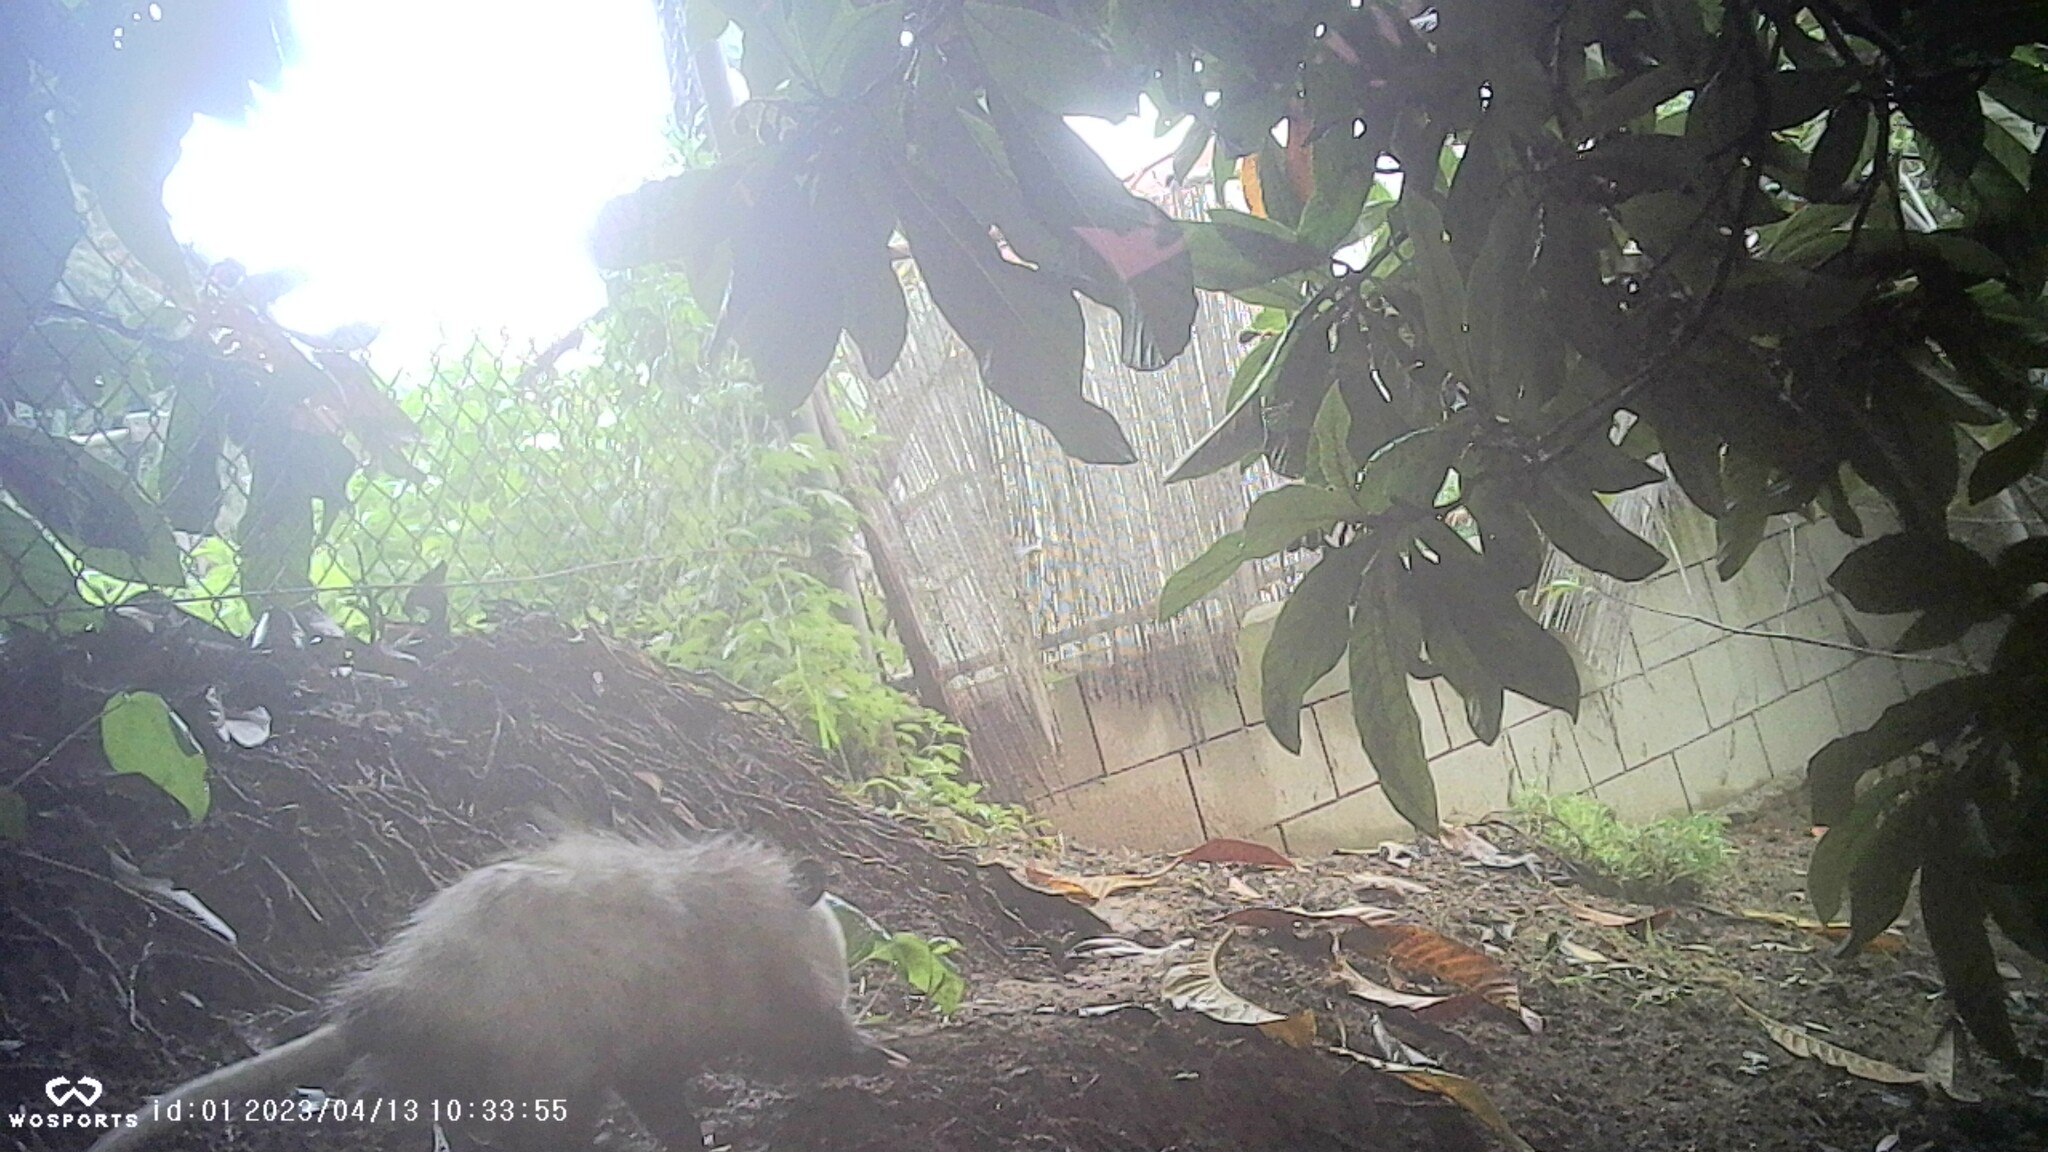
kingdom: Animalia
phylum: Chordata
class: Mammalia
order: Didelphimorphia
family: Didelphidae
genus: Didelphis
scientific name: Didelphis virginiana
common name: Virginia opossum
